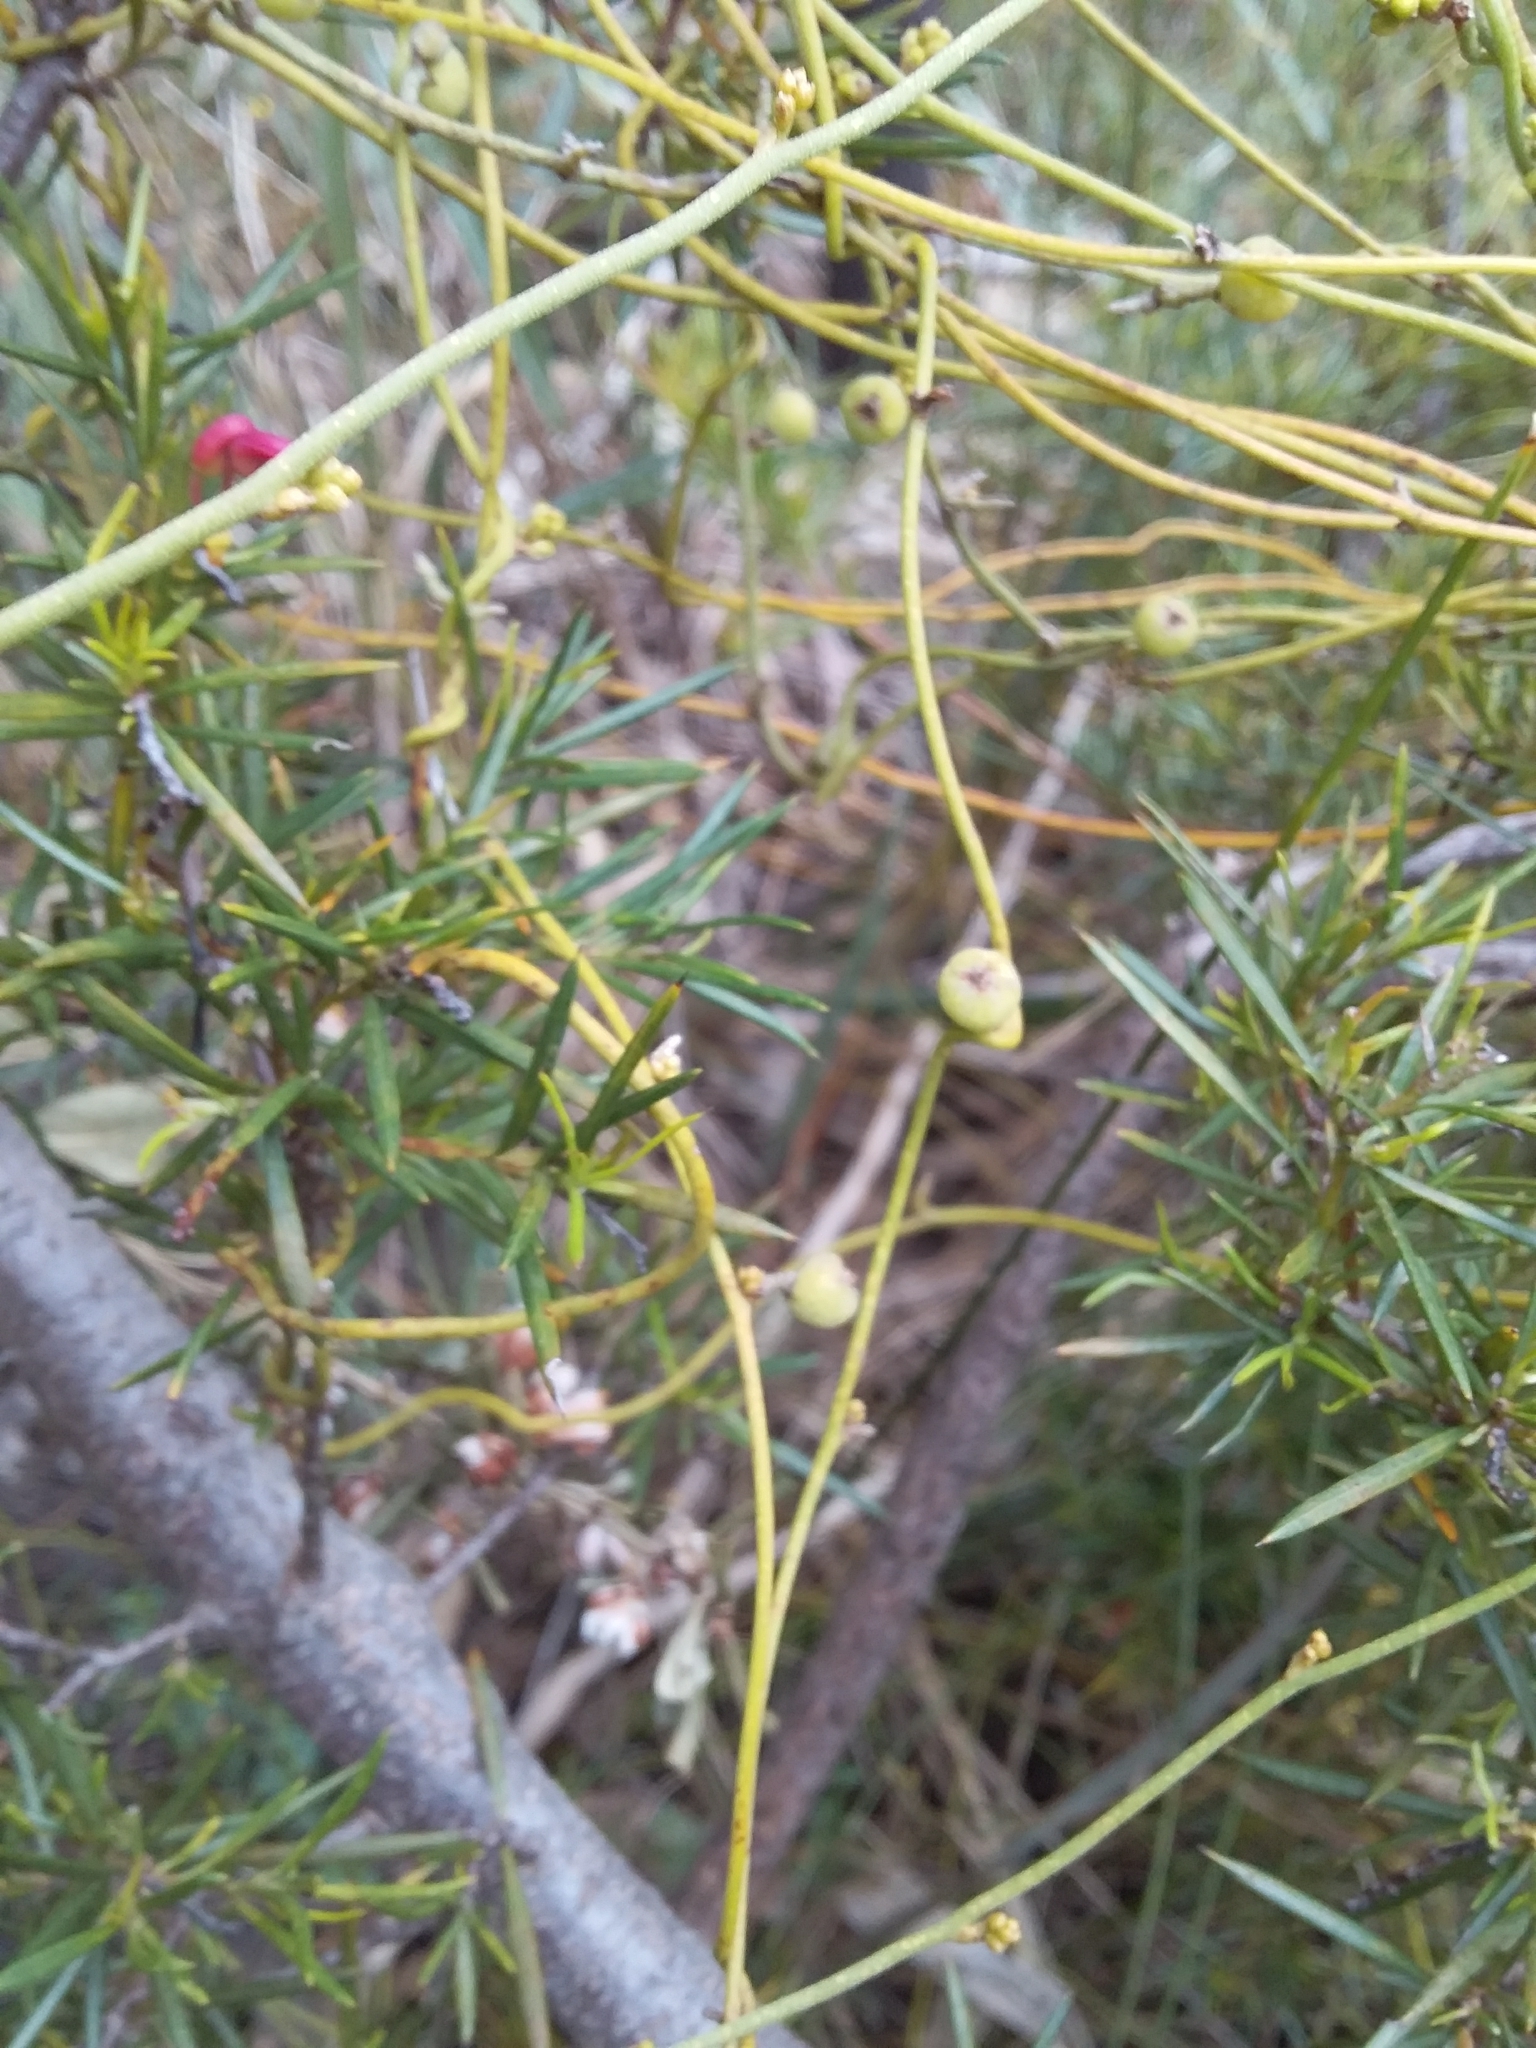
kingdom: Plantae
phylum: Tracheophyta
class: Magnoliopsida
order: Laurales
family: Lauraceae
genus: Cassytha
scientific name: Cassytha pubescens
